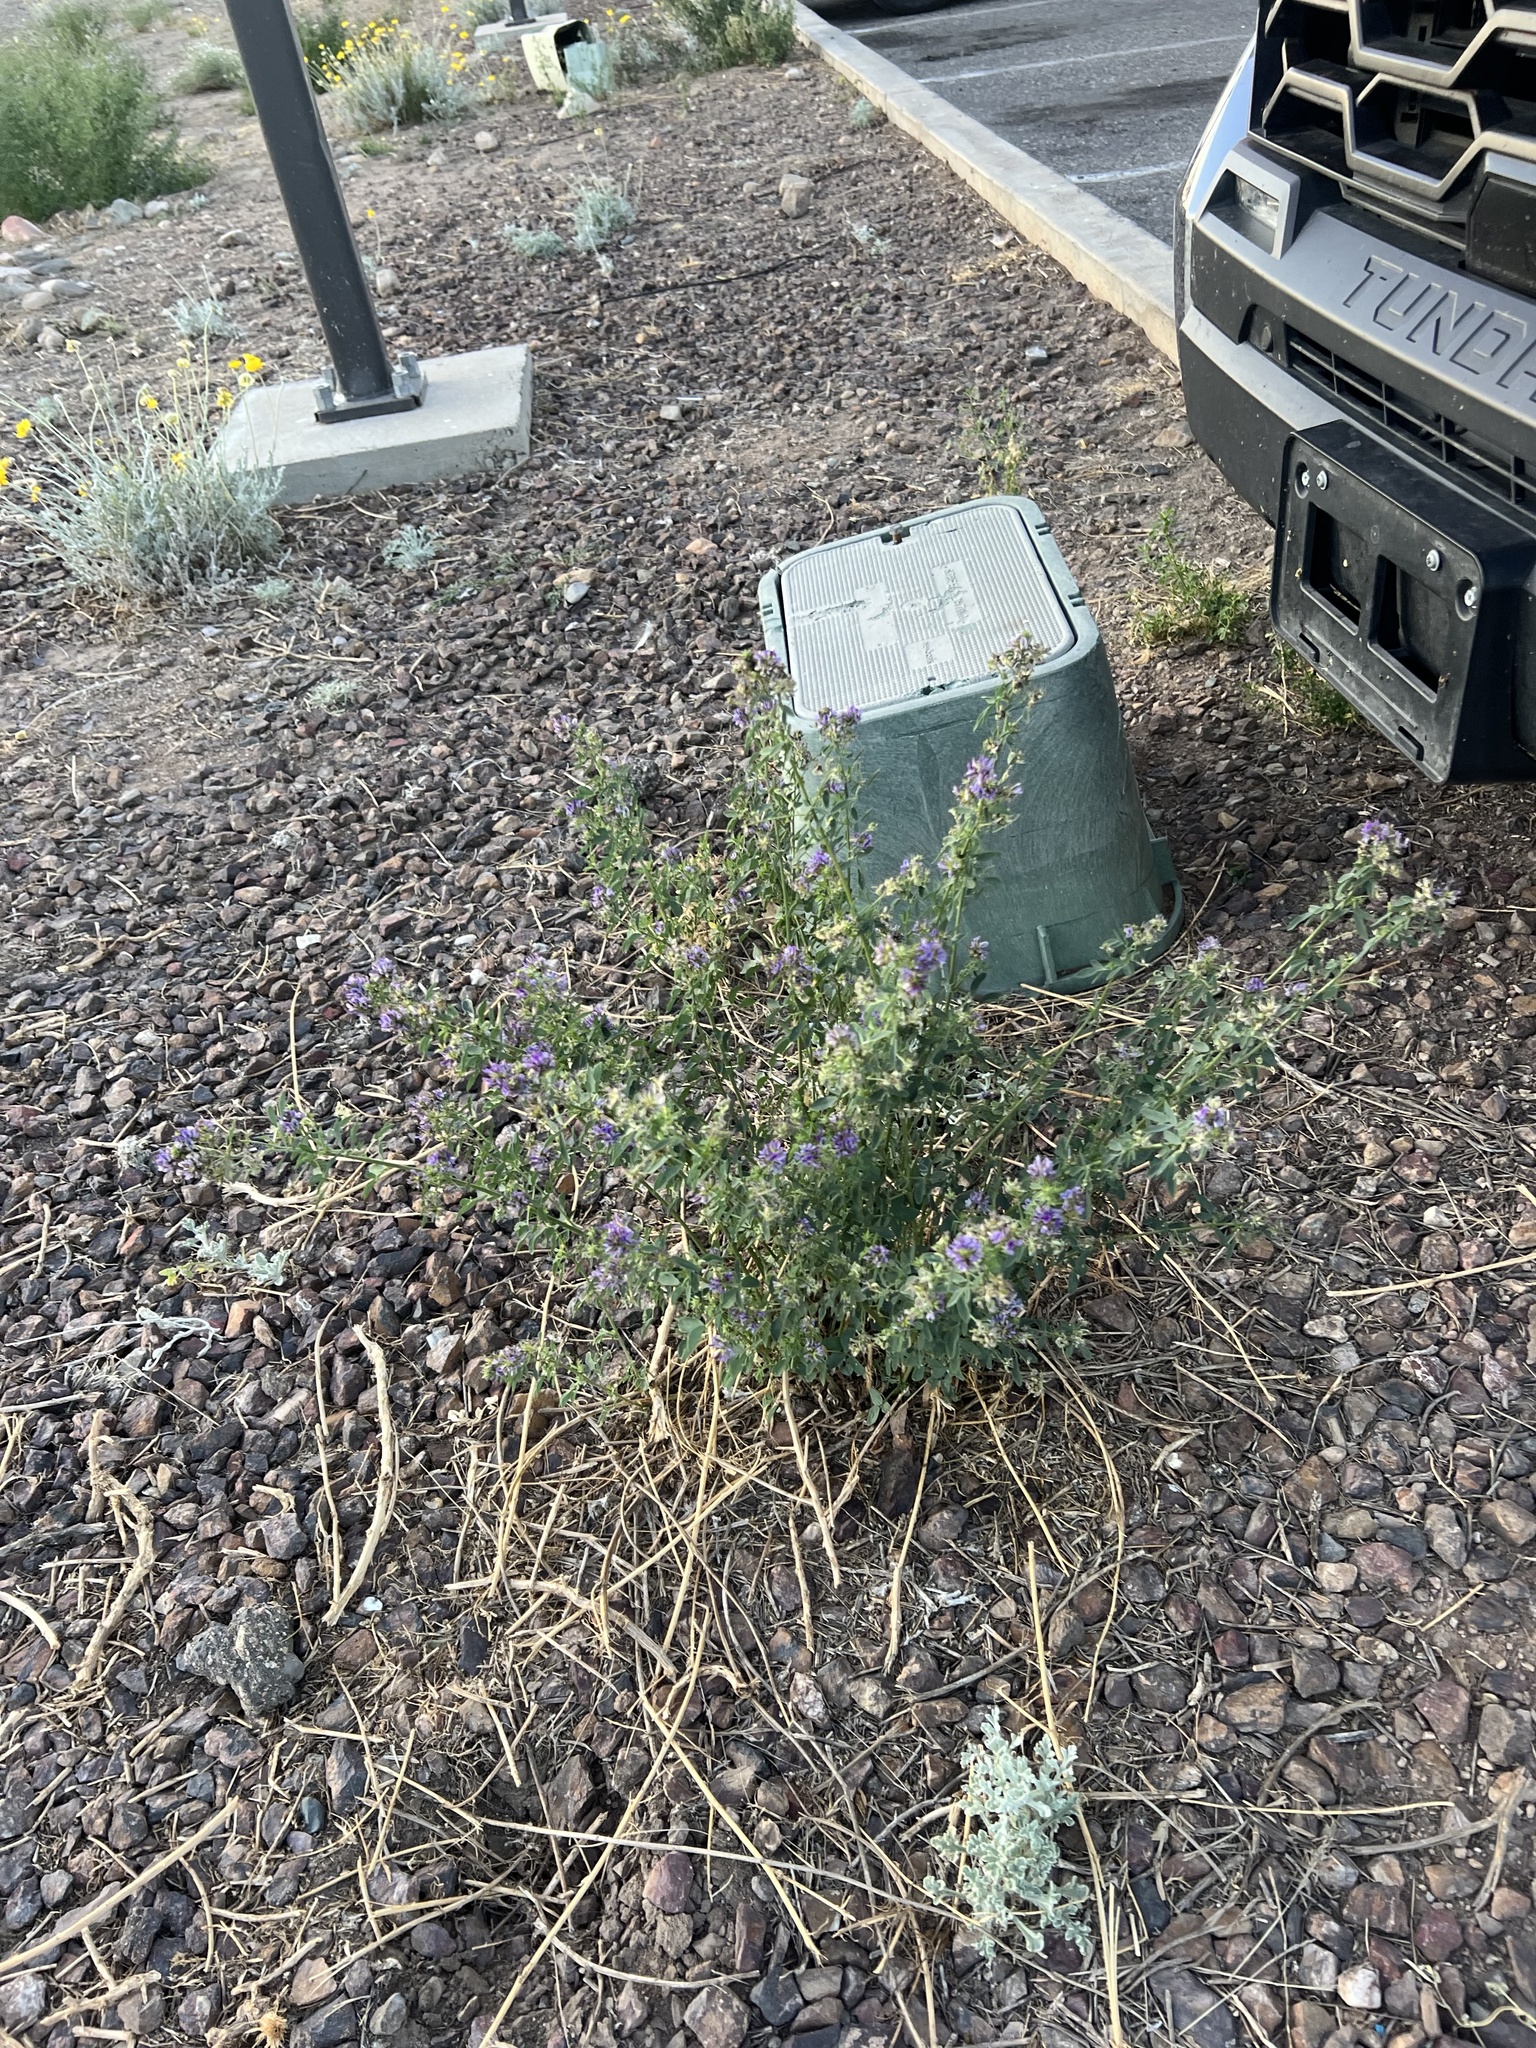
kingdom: Plantae
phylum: Tracheophyta
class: Magnoliopsida
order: Fabales
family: Fabaceae
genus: Medicago
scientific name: Medicago sativa
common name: Alfalfa
